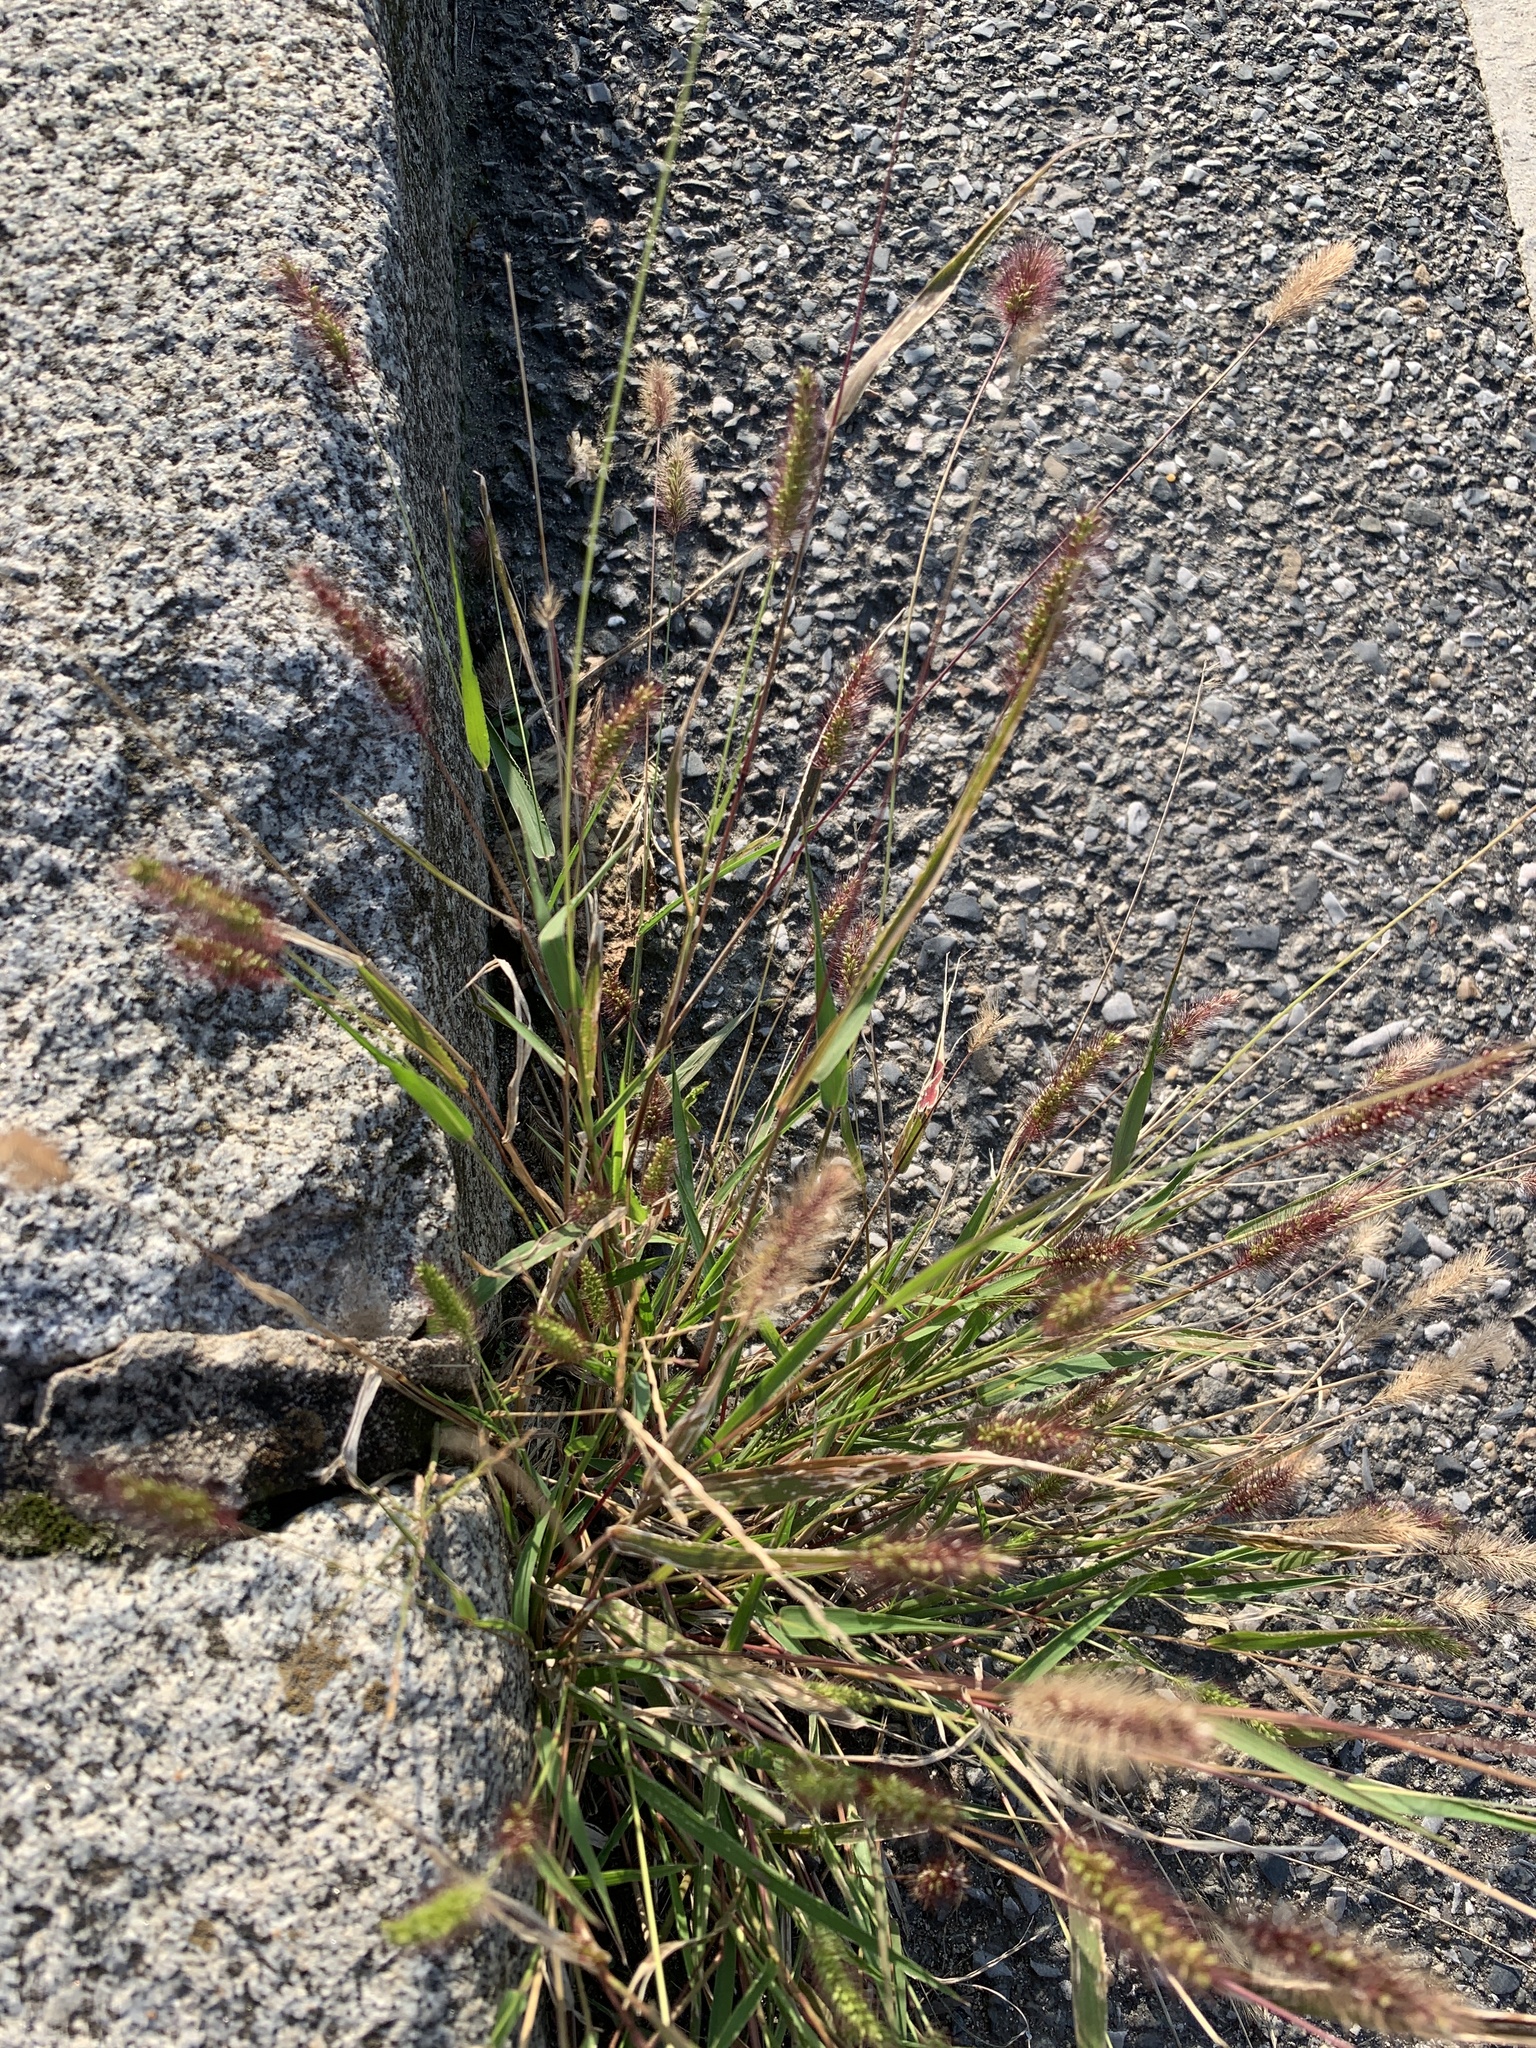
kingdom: Plantae
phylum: Tracheophyta
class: Liliopsida
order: Poales
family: Poaceae
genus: Setaria
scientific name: Setaria viridis
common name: Green bristlegrass
